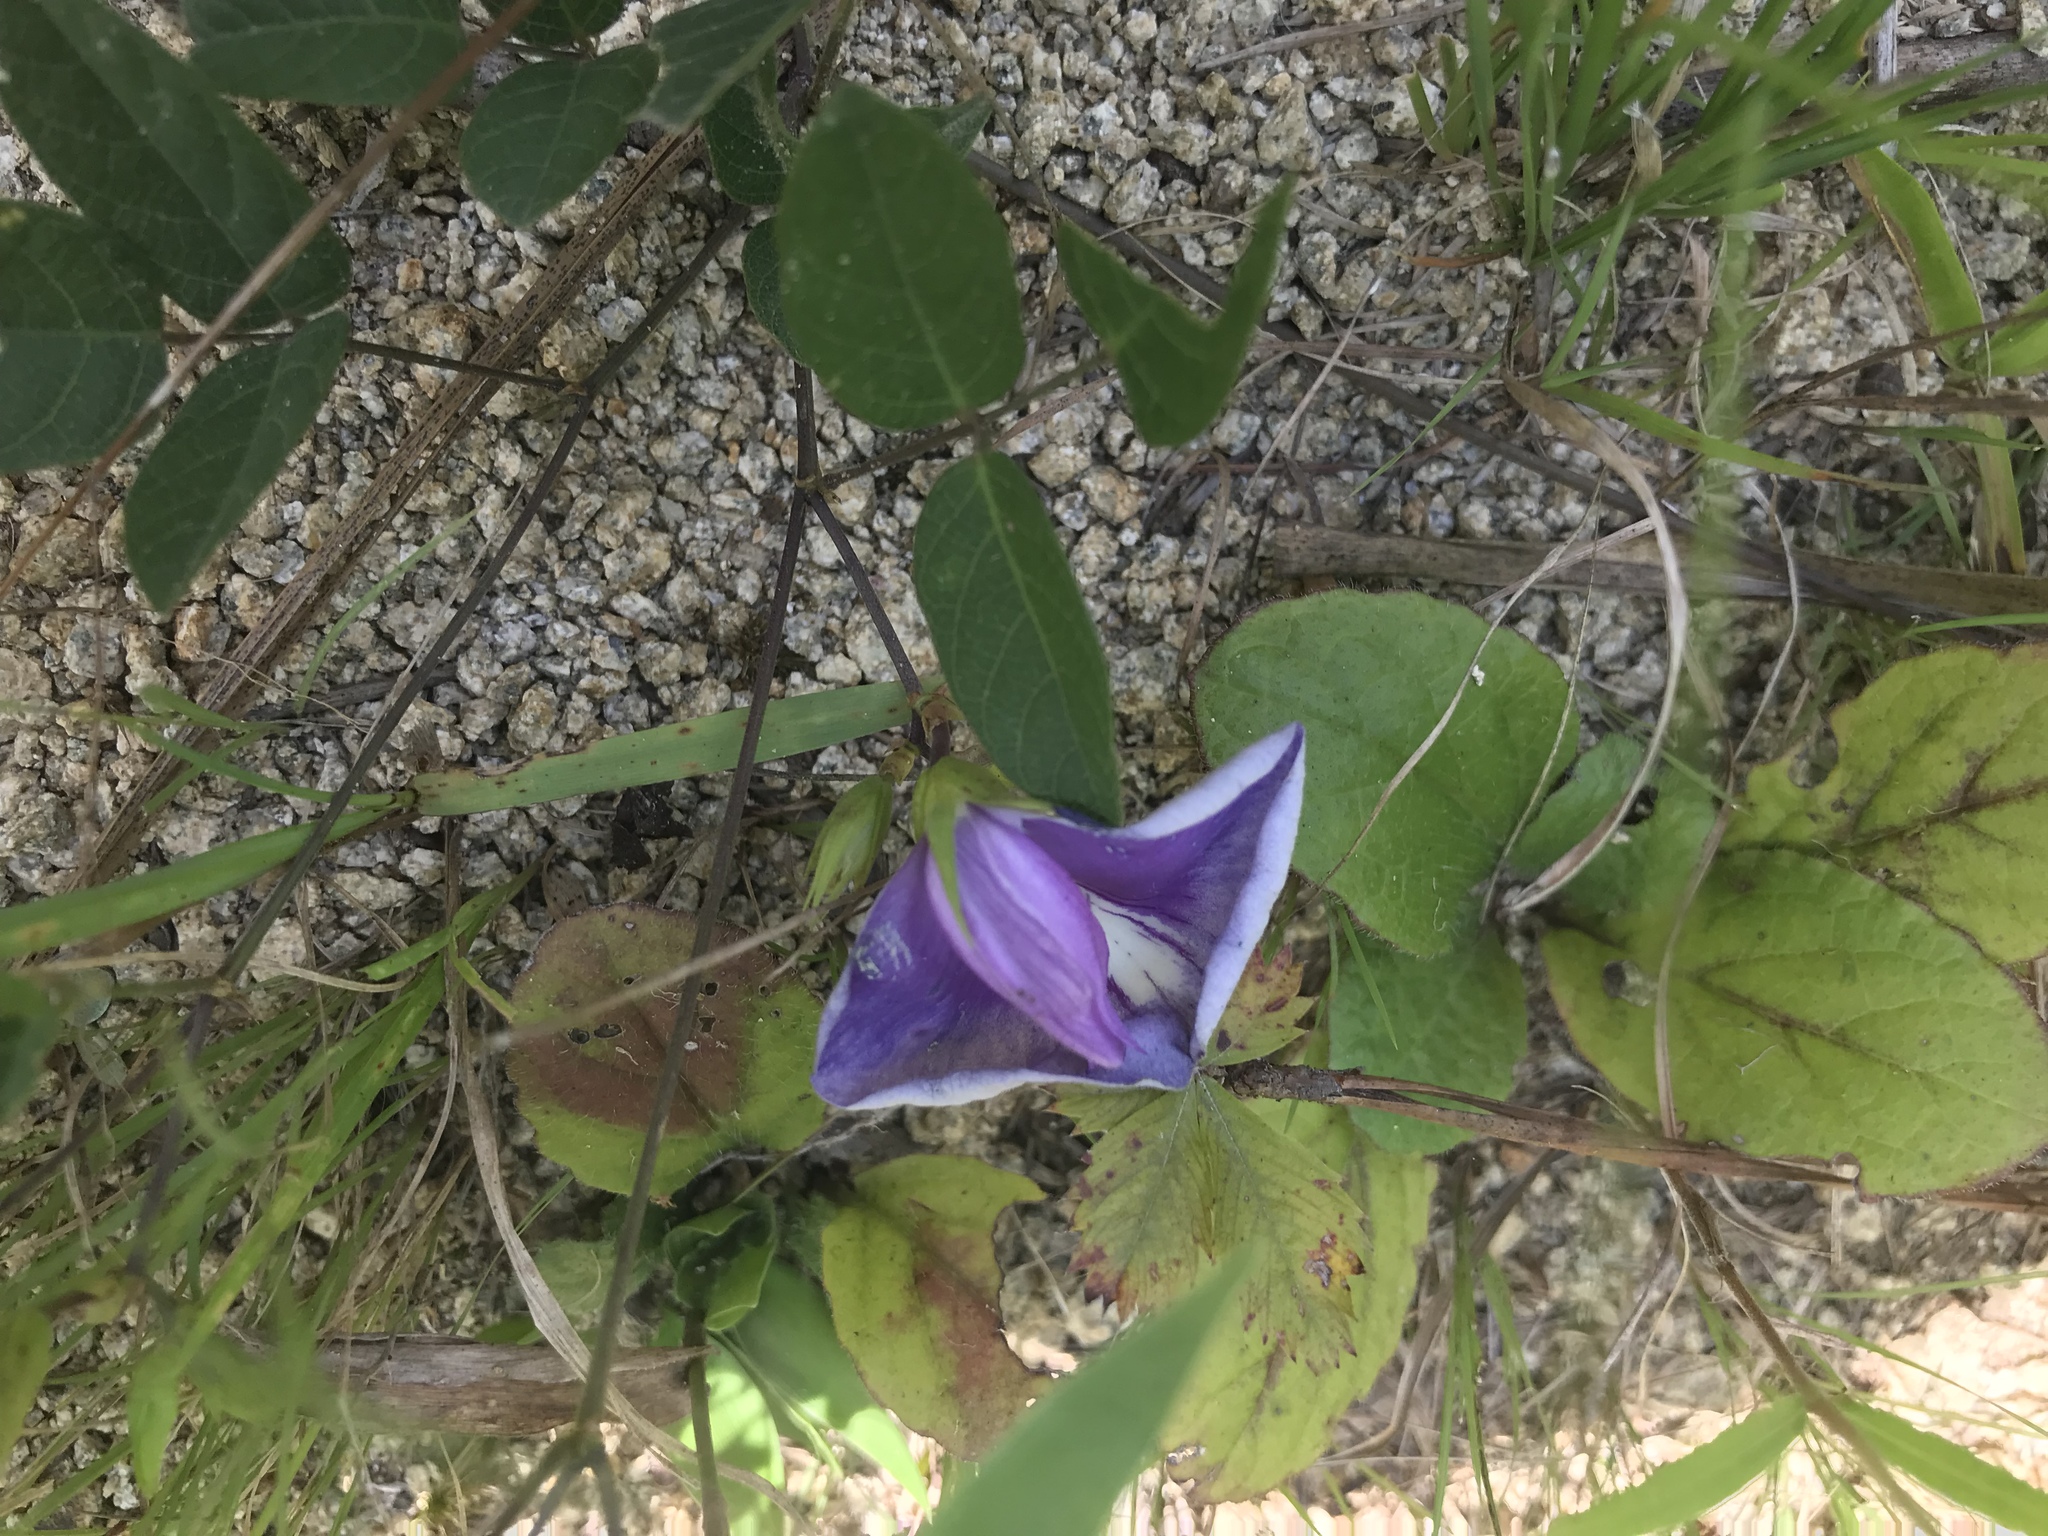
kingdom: Plantae
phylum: Tracheophyta
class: Magnoliopsida
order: Fabales
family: Fabaceae
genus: Centrosema
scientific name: Centrosema virginianum
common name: Butterfly-pea
